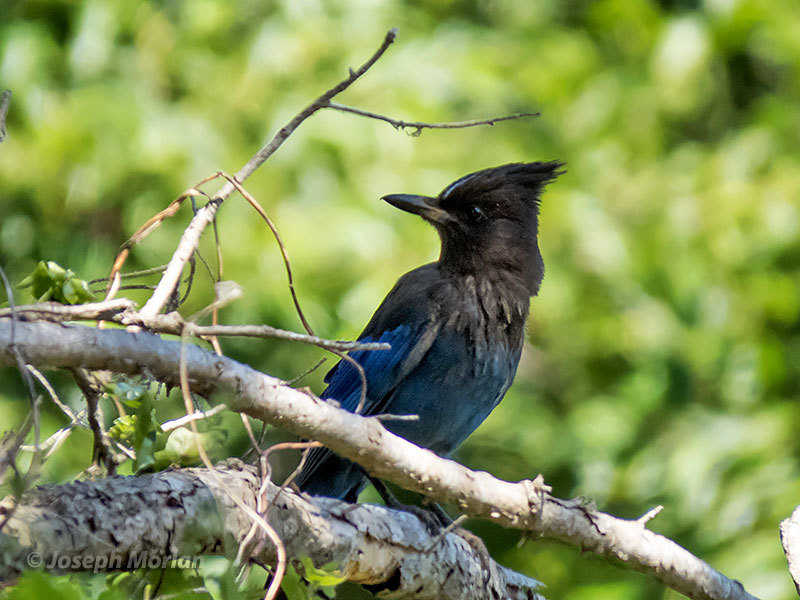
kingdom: Animalia
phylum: Chordata
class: Aves
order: Passeriformes
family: Corvidae
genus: Cyanocitta
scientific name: Cyanocitta stelleri
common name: Steller's jay
